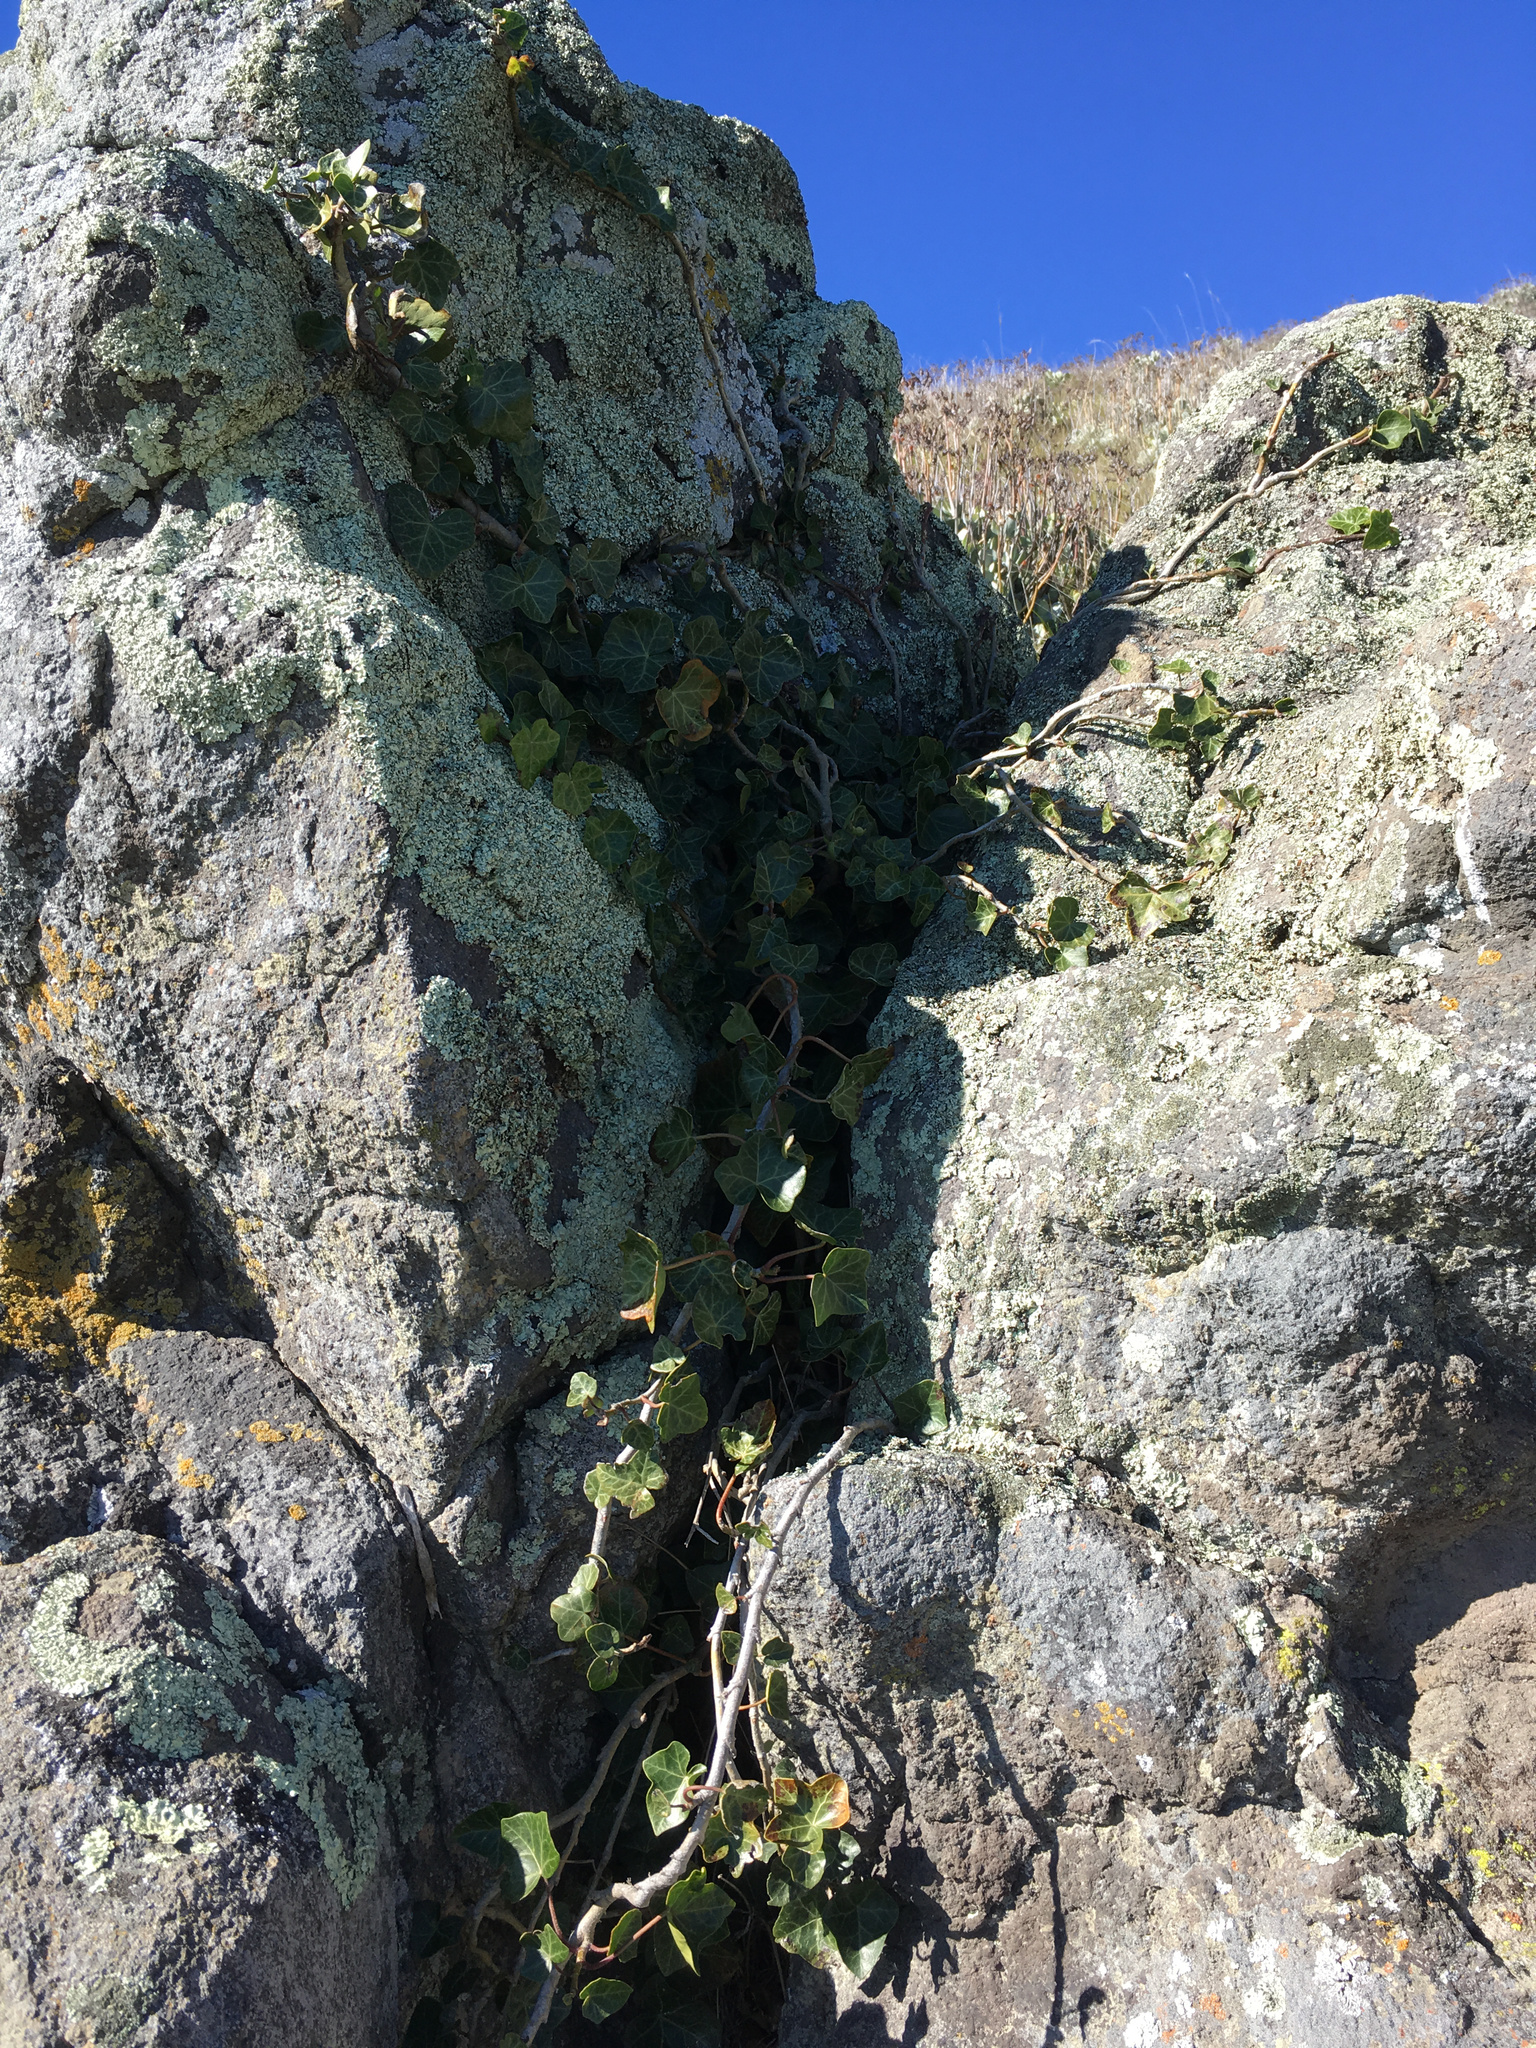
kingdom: Plantae
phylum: Tracheophyta
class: Magnoliopsida
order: Apiales
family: Araliaceae
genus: Hedera
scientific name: Hedera helix
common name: Ivy
